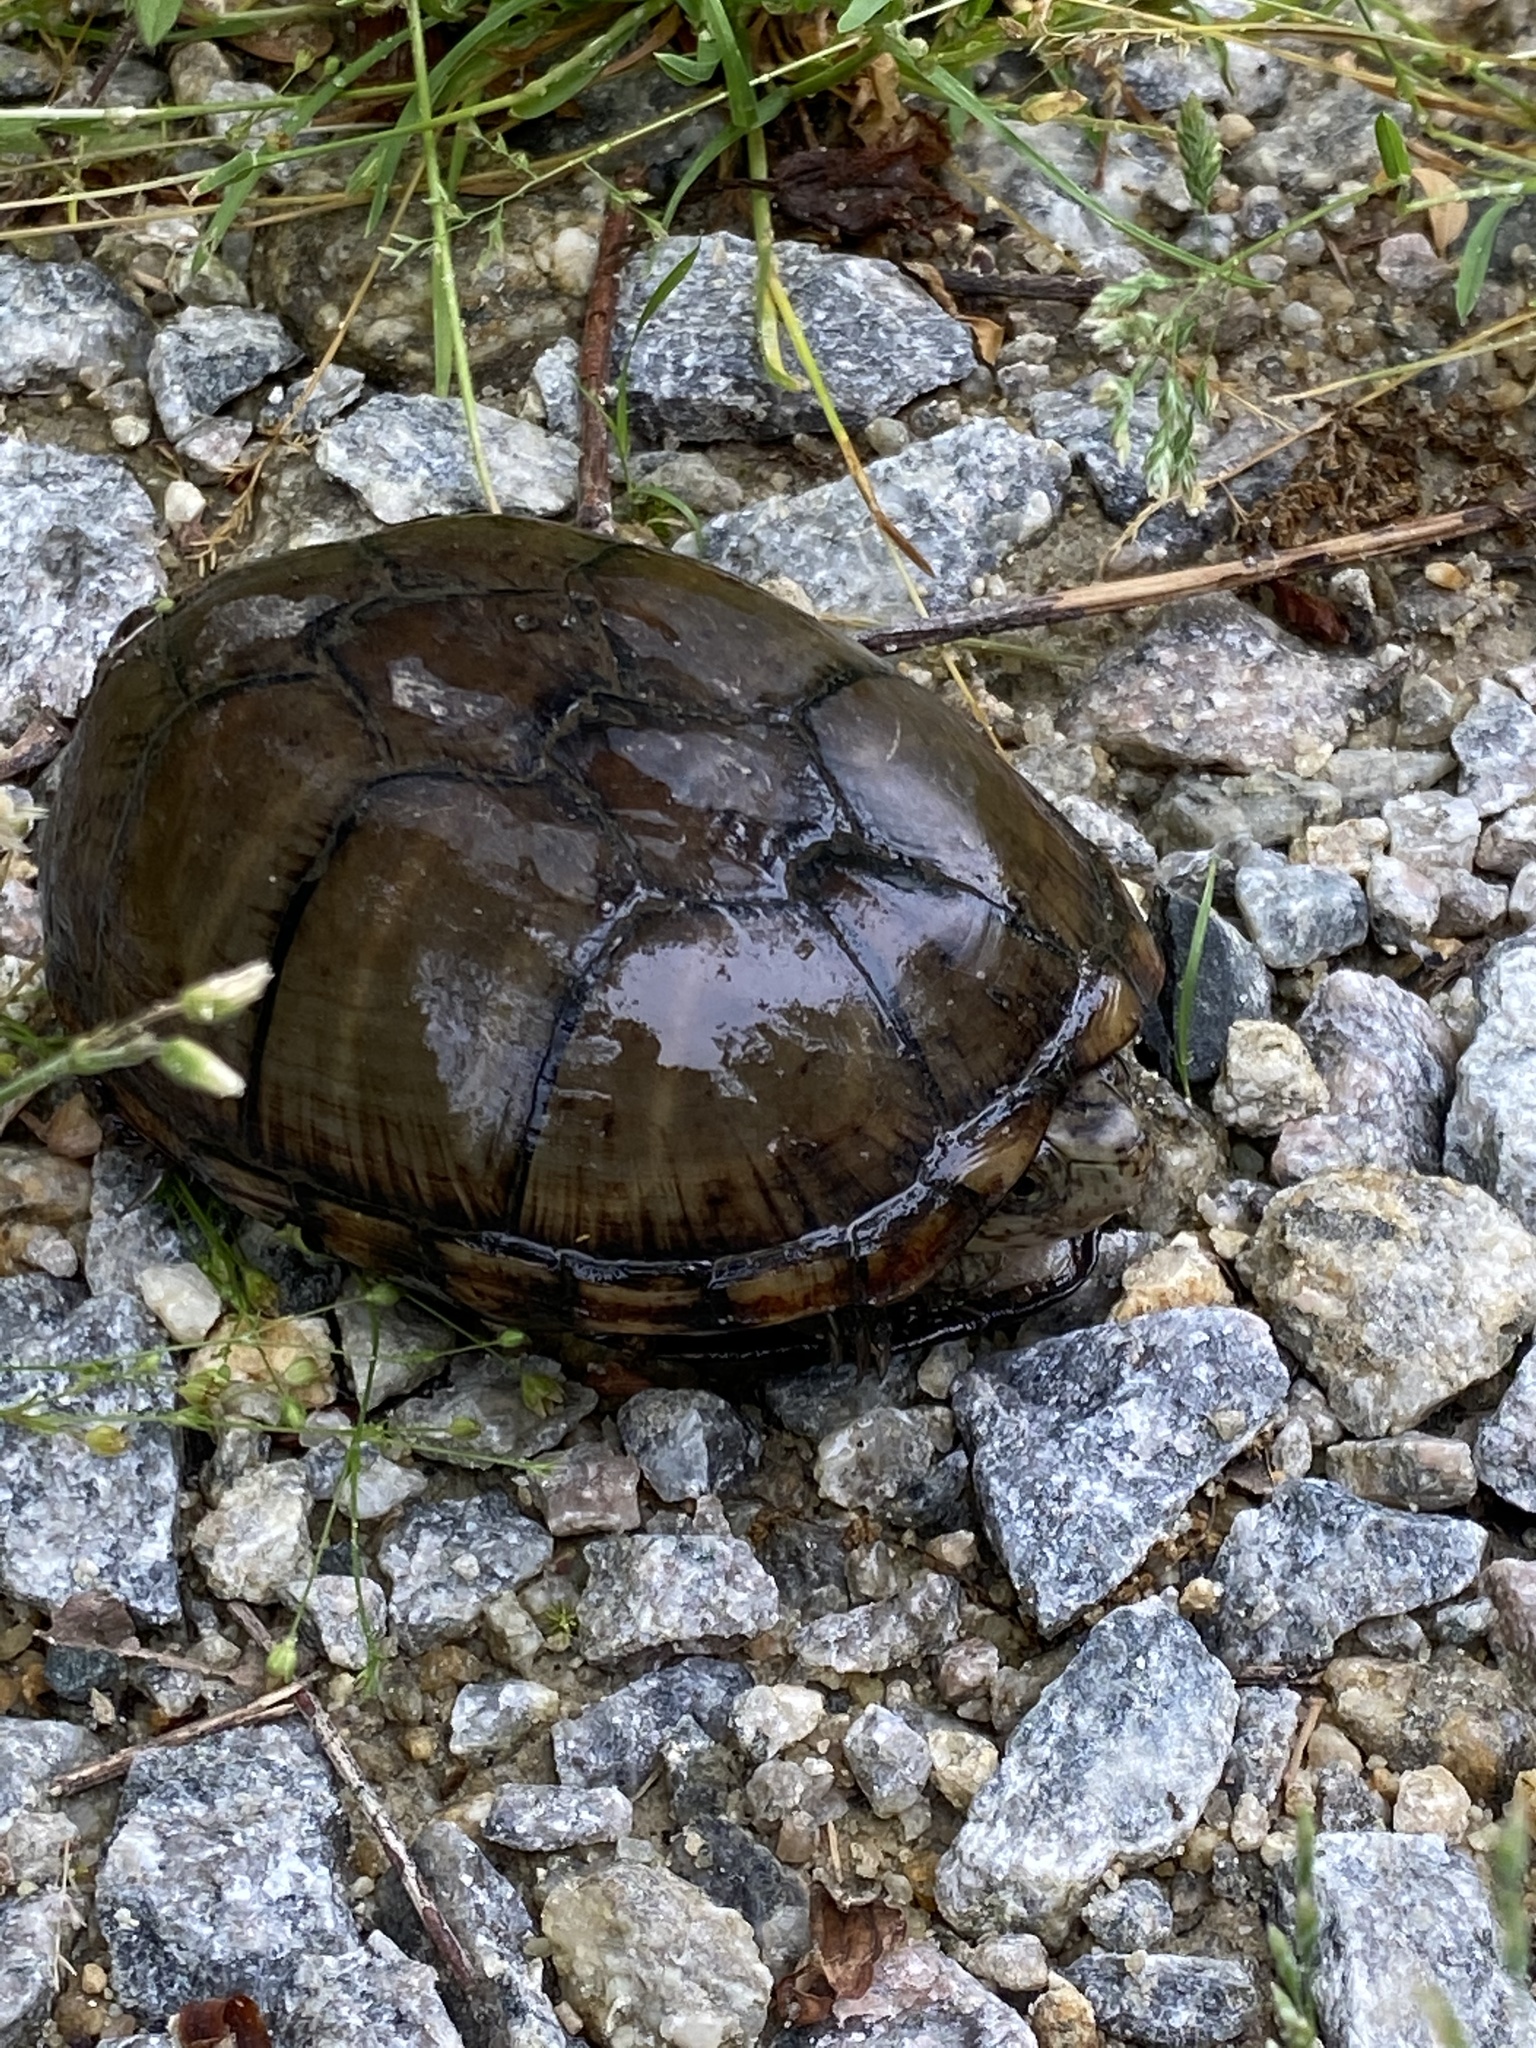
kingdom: Animalia
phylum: Chordata
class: Testudines
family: Kinosternidae
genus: Kinosternon
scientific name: Kinosternon subrubrum
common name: Eastern mud turtle
